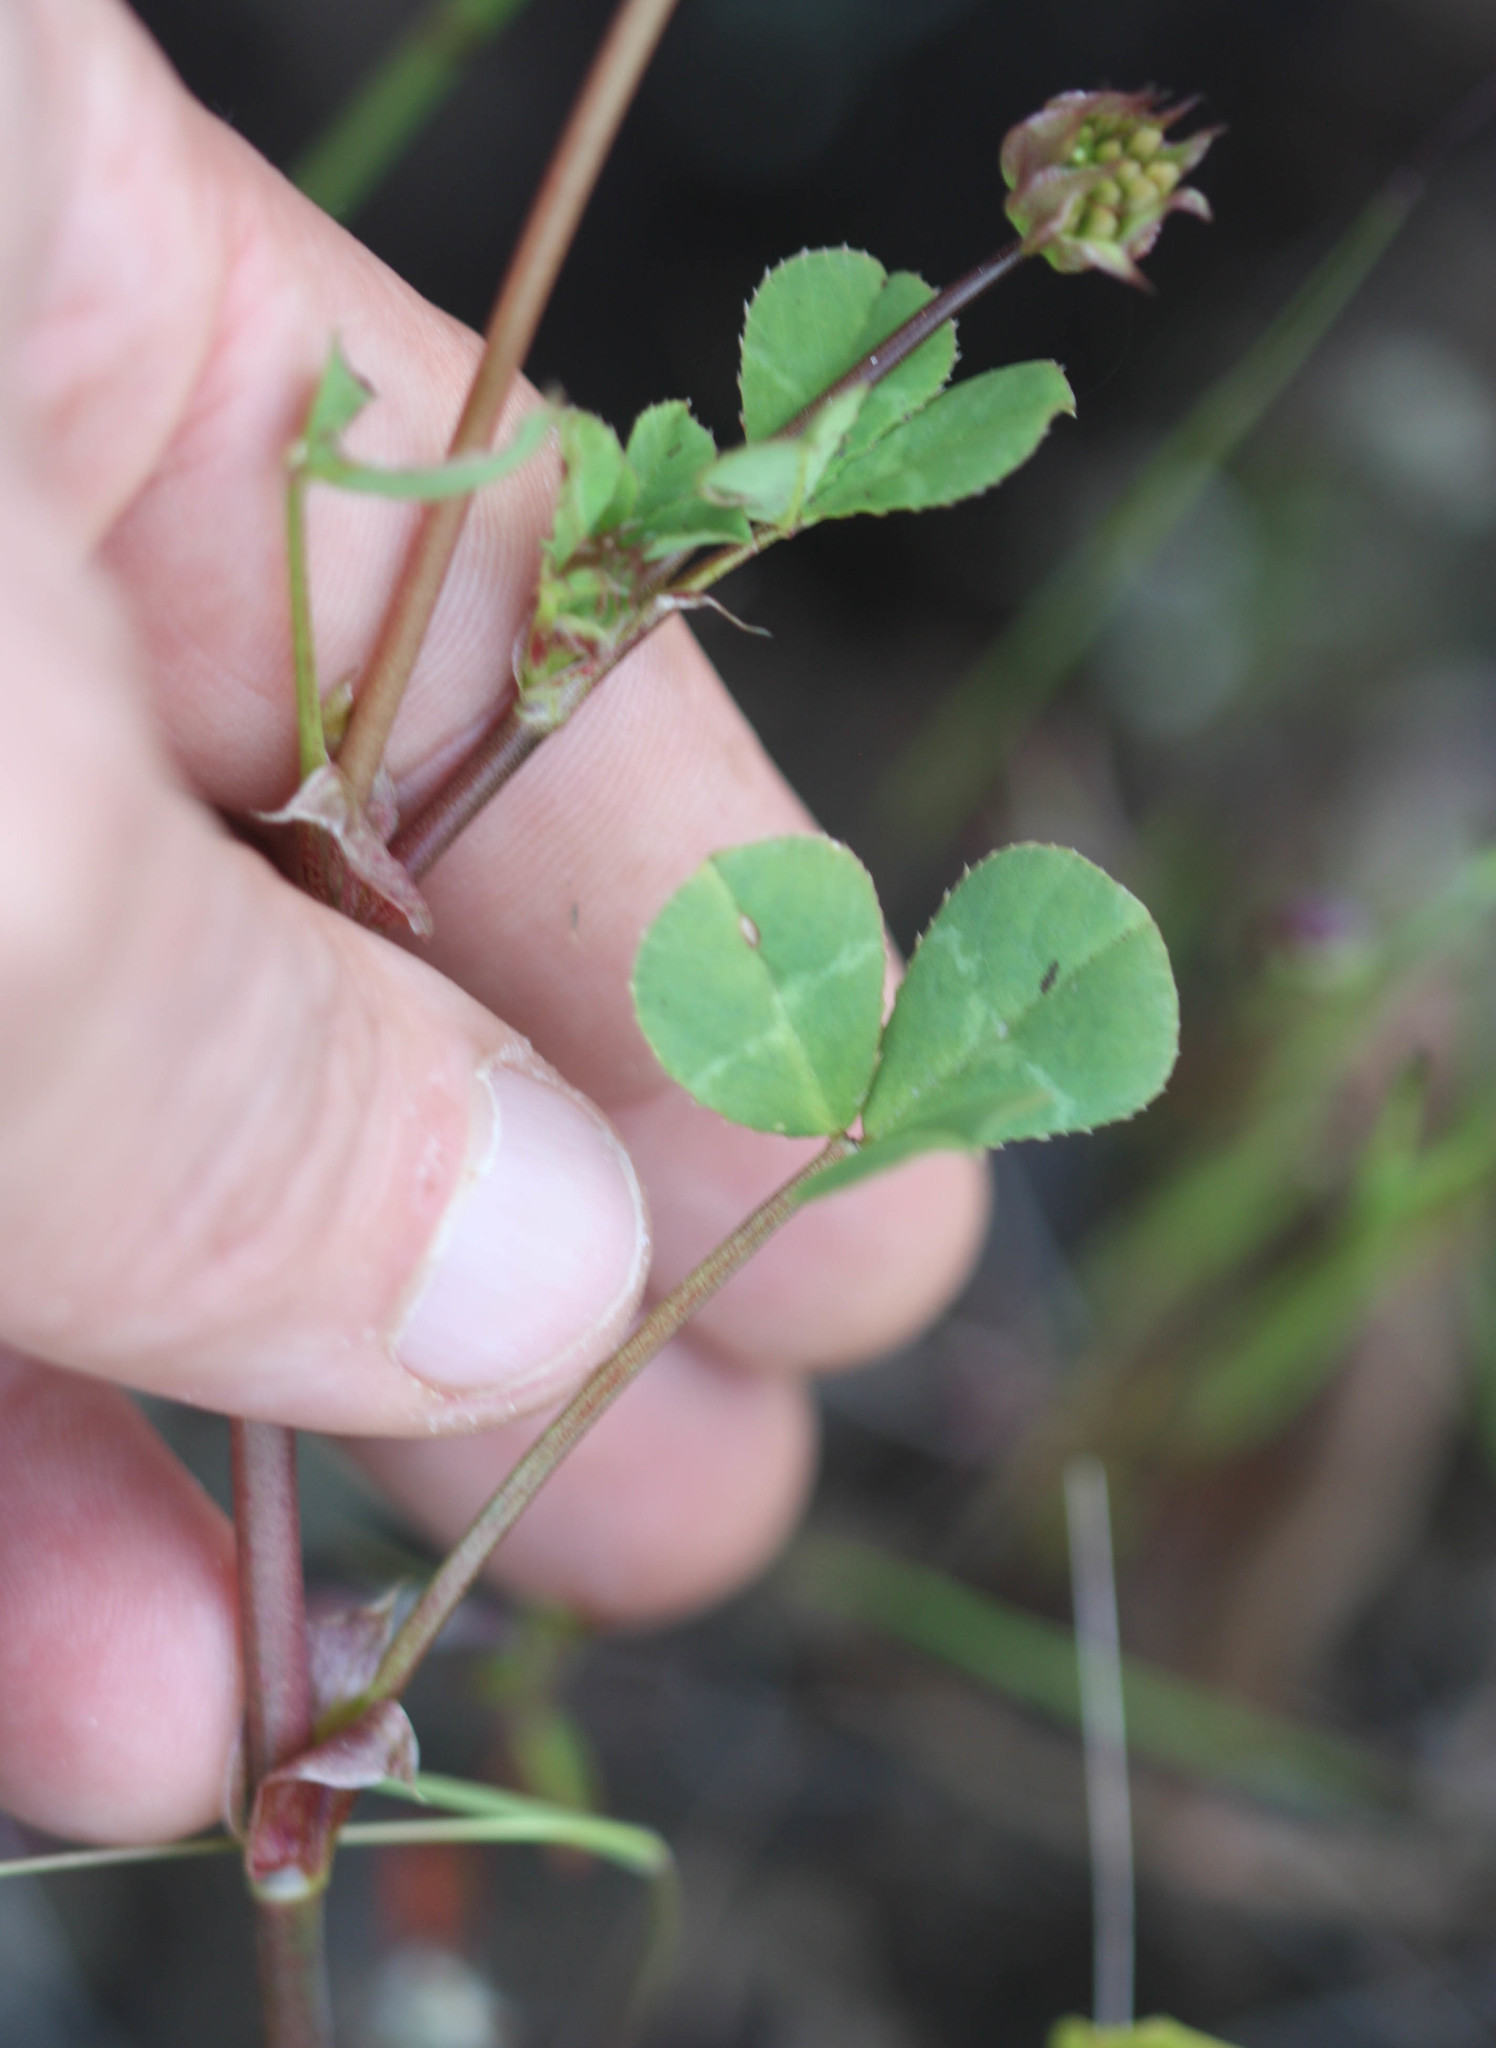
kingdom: Plantae
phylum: Tracheophyta
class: Magnoliopsida
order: Fabales
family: Fabaceae
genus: Trifolium
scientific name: Trifolium fucatum
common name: Puff clover
